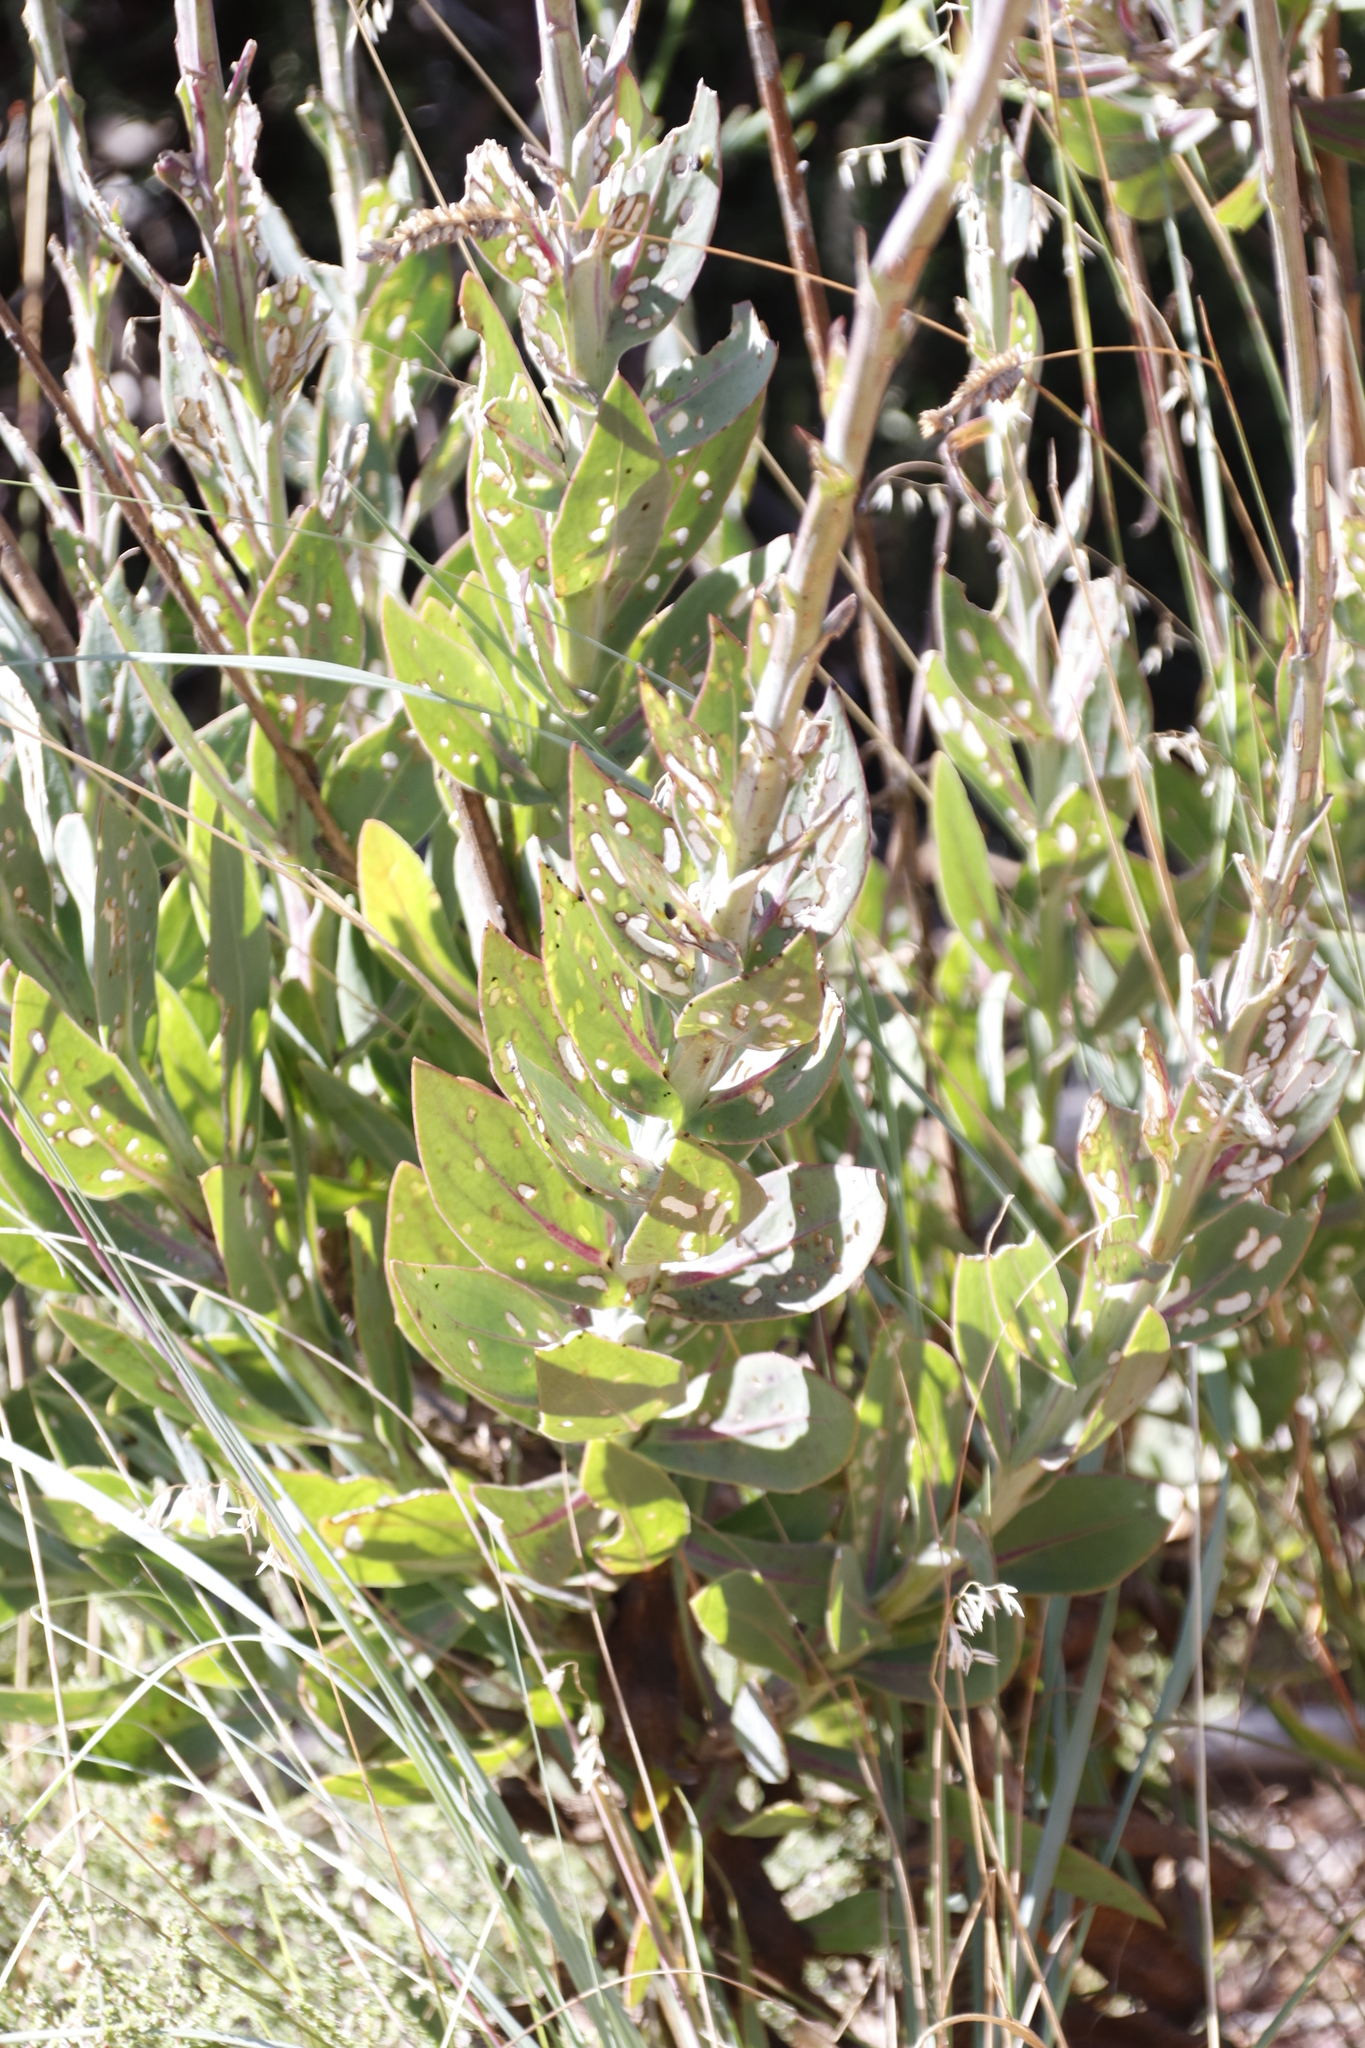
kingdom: Plantae
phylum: Tracheophyta
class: Magnoliopsida
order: Asterales
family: Asteraceae
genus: Othonna
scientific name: Othonna quinquedentata
